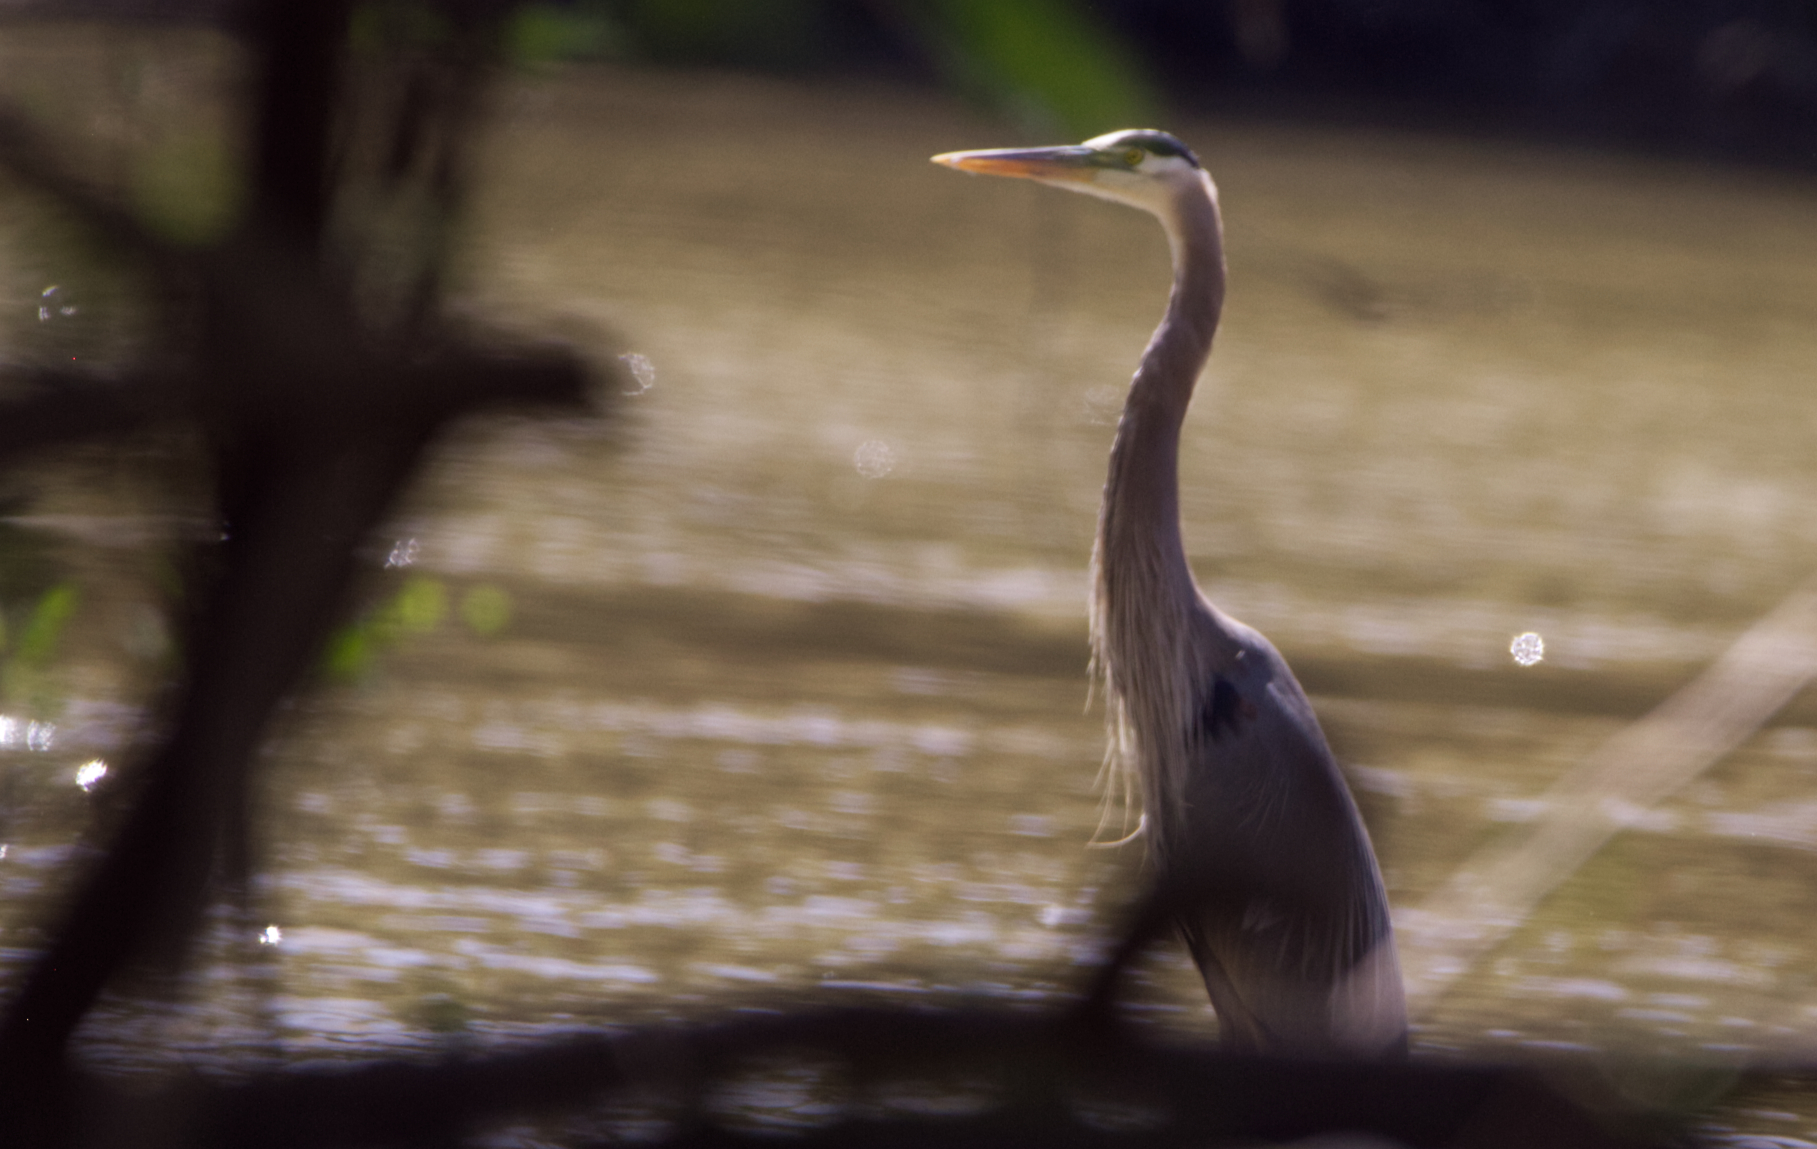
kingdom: Animalia
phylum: Chordata
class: Aves
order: Pelecaniformes
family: Ardeidae
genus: Ardea
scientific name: Ardea herodias
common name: Great blue heron
